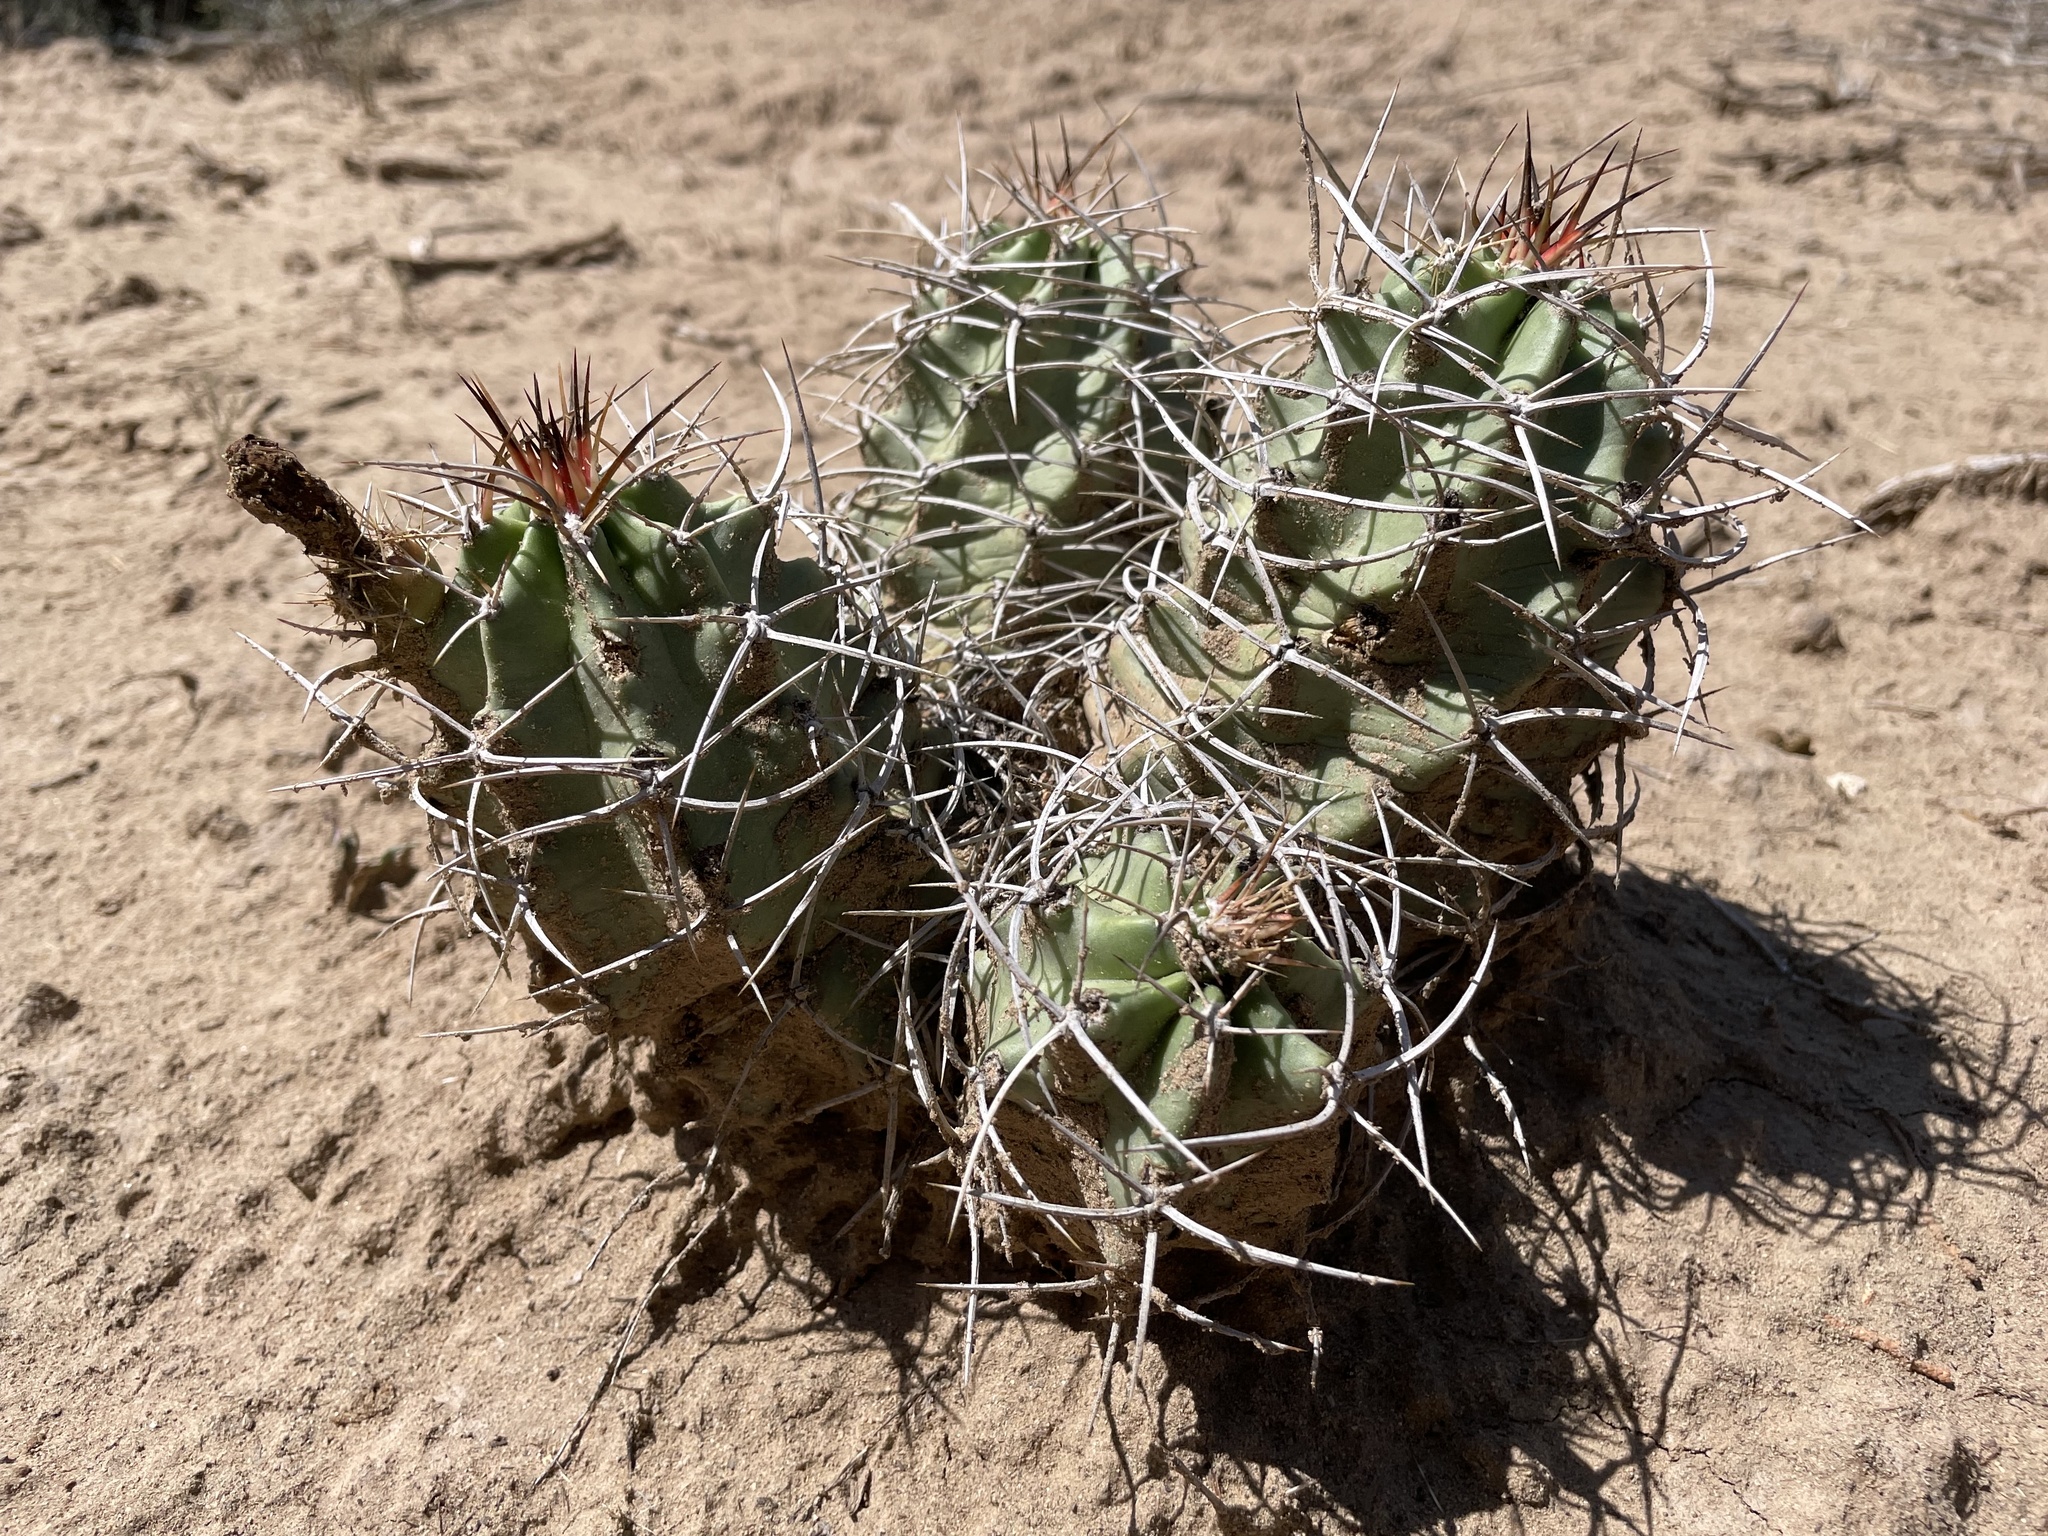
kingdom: Plantae
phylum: Tracheophyta
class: Magnoliopsida
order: Caryophyllales
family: Cactaceae
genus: Echinocereus
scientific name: Echinocereus triglochidiatus
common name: Claretcup hedgehog
